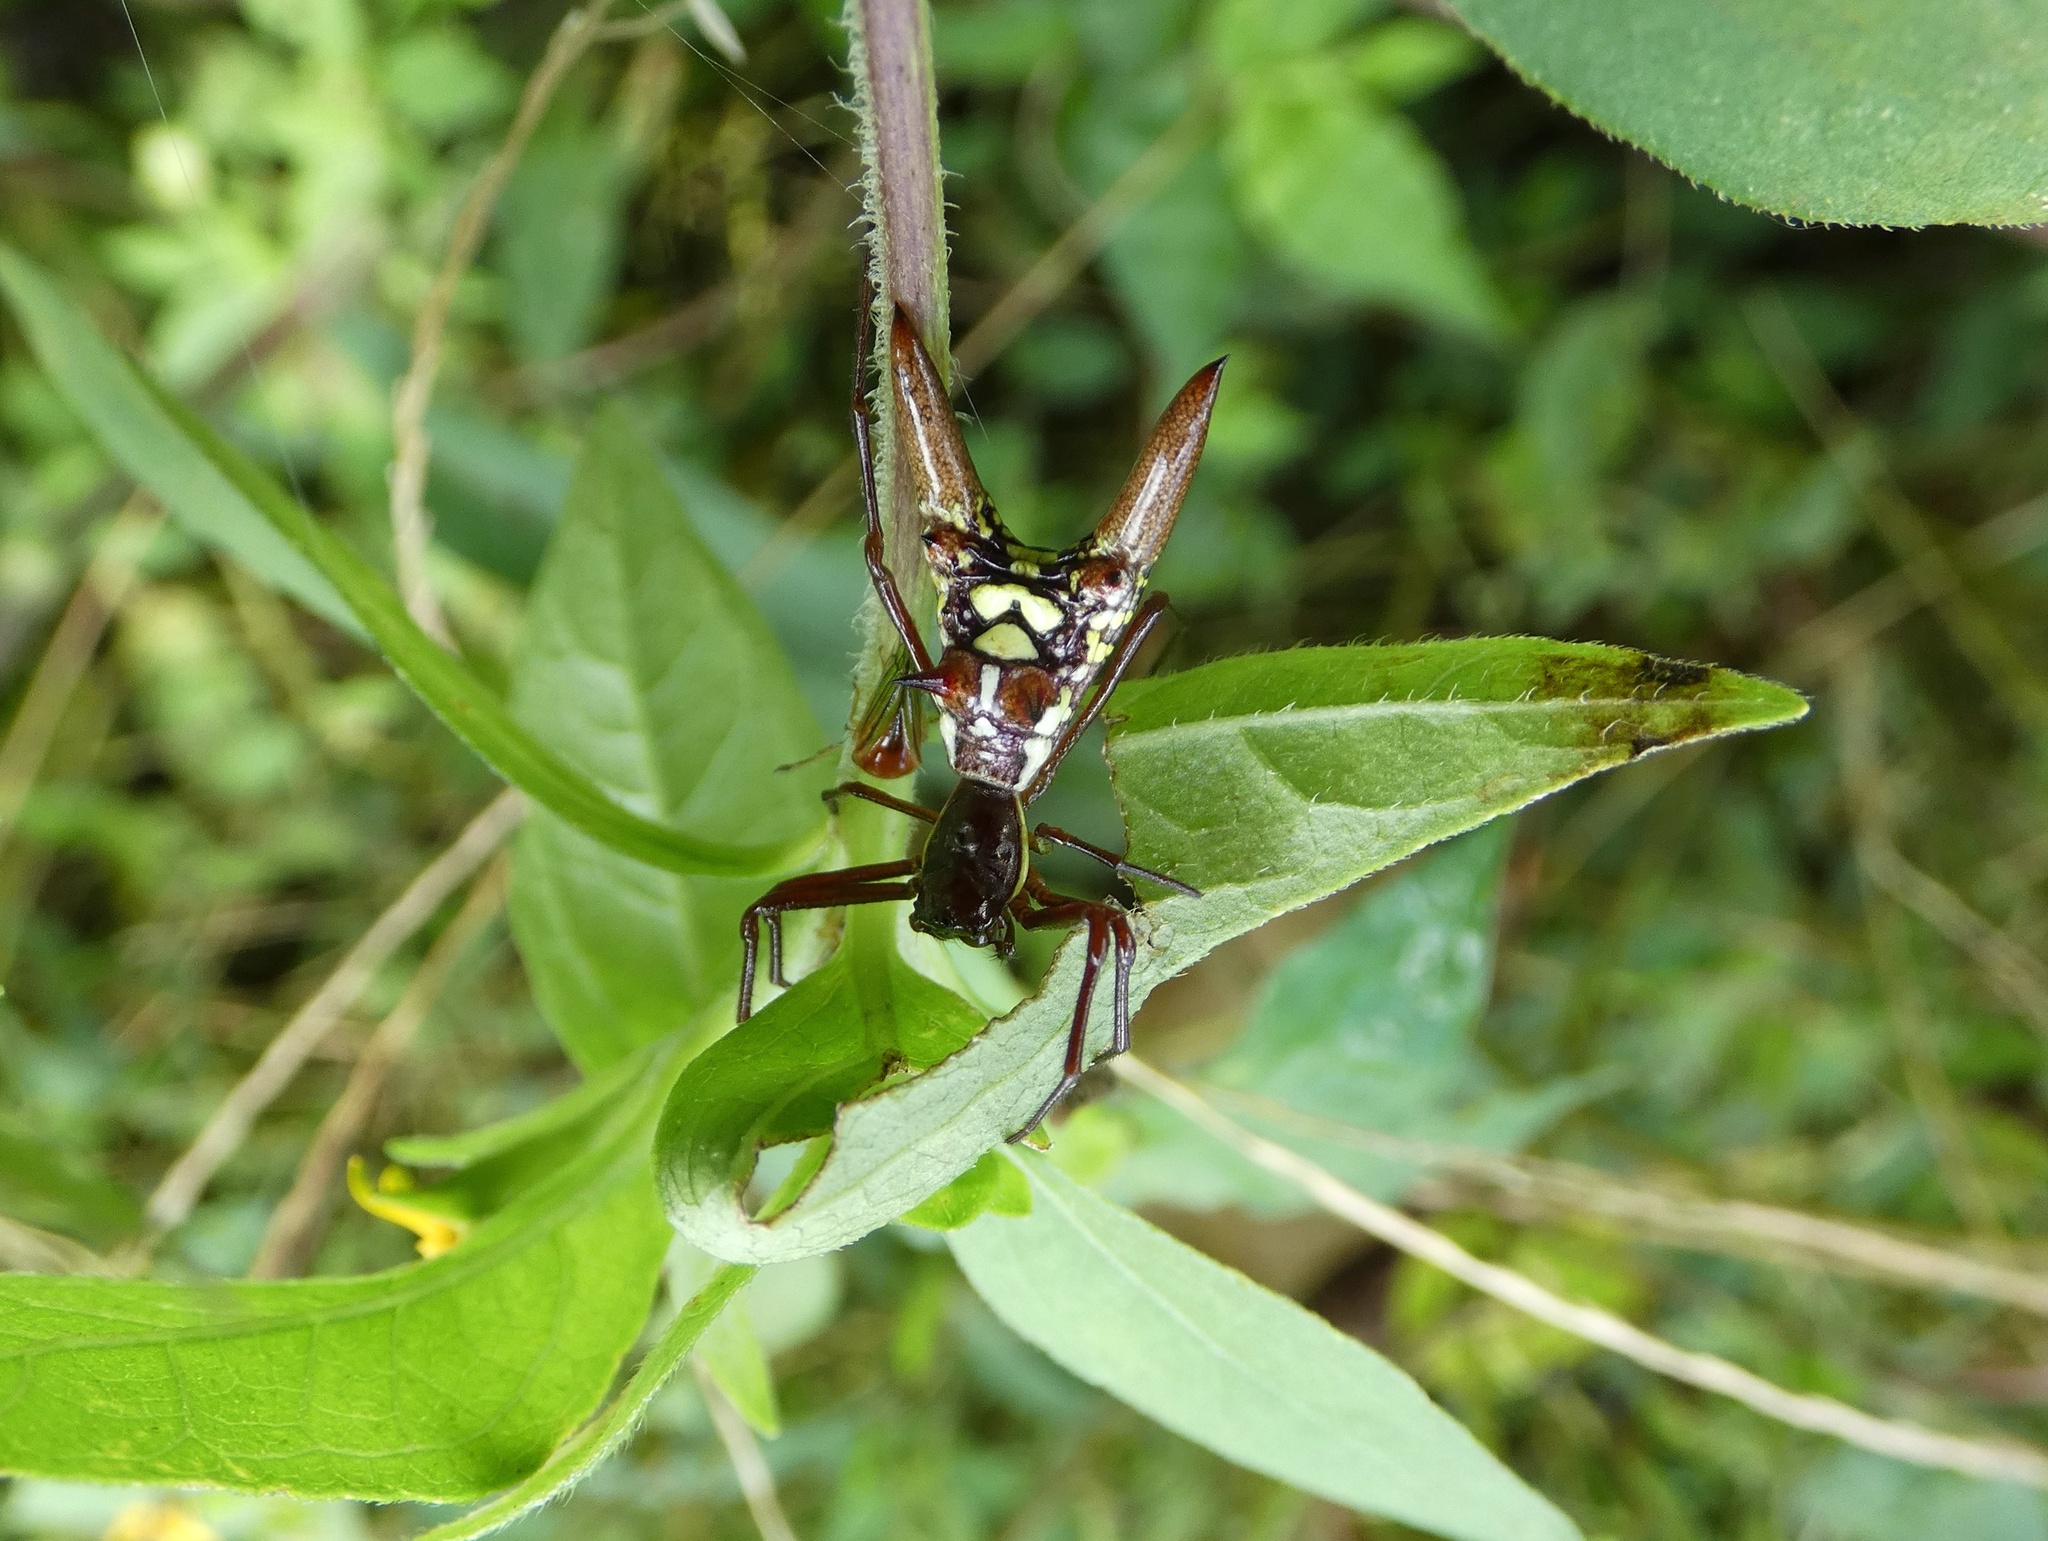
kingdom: Animalia
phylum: Arthropoda
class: Arachnida
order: Araneae
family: Araneidae
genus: Micrathena
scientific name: Micrathena sexspinosa
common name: Orb weavers
